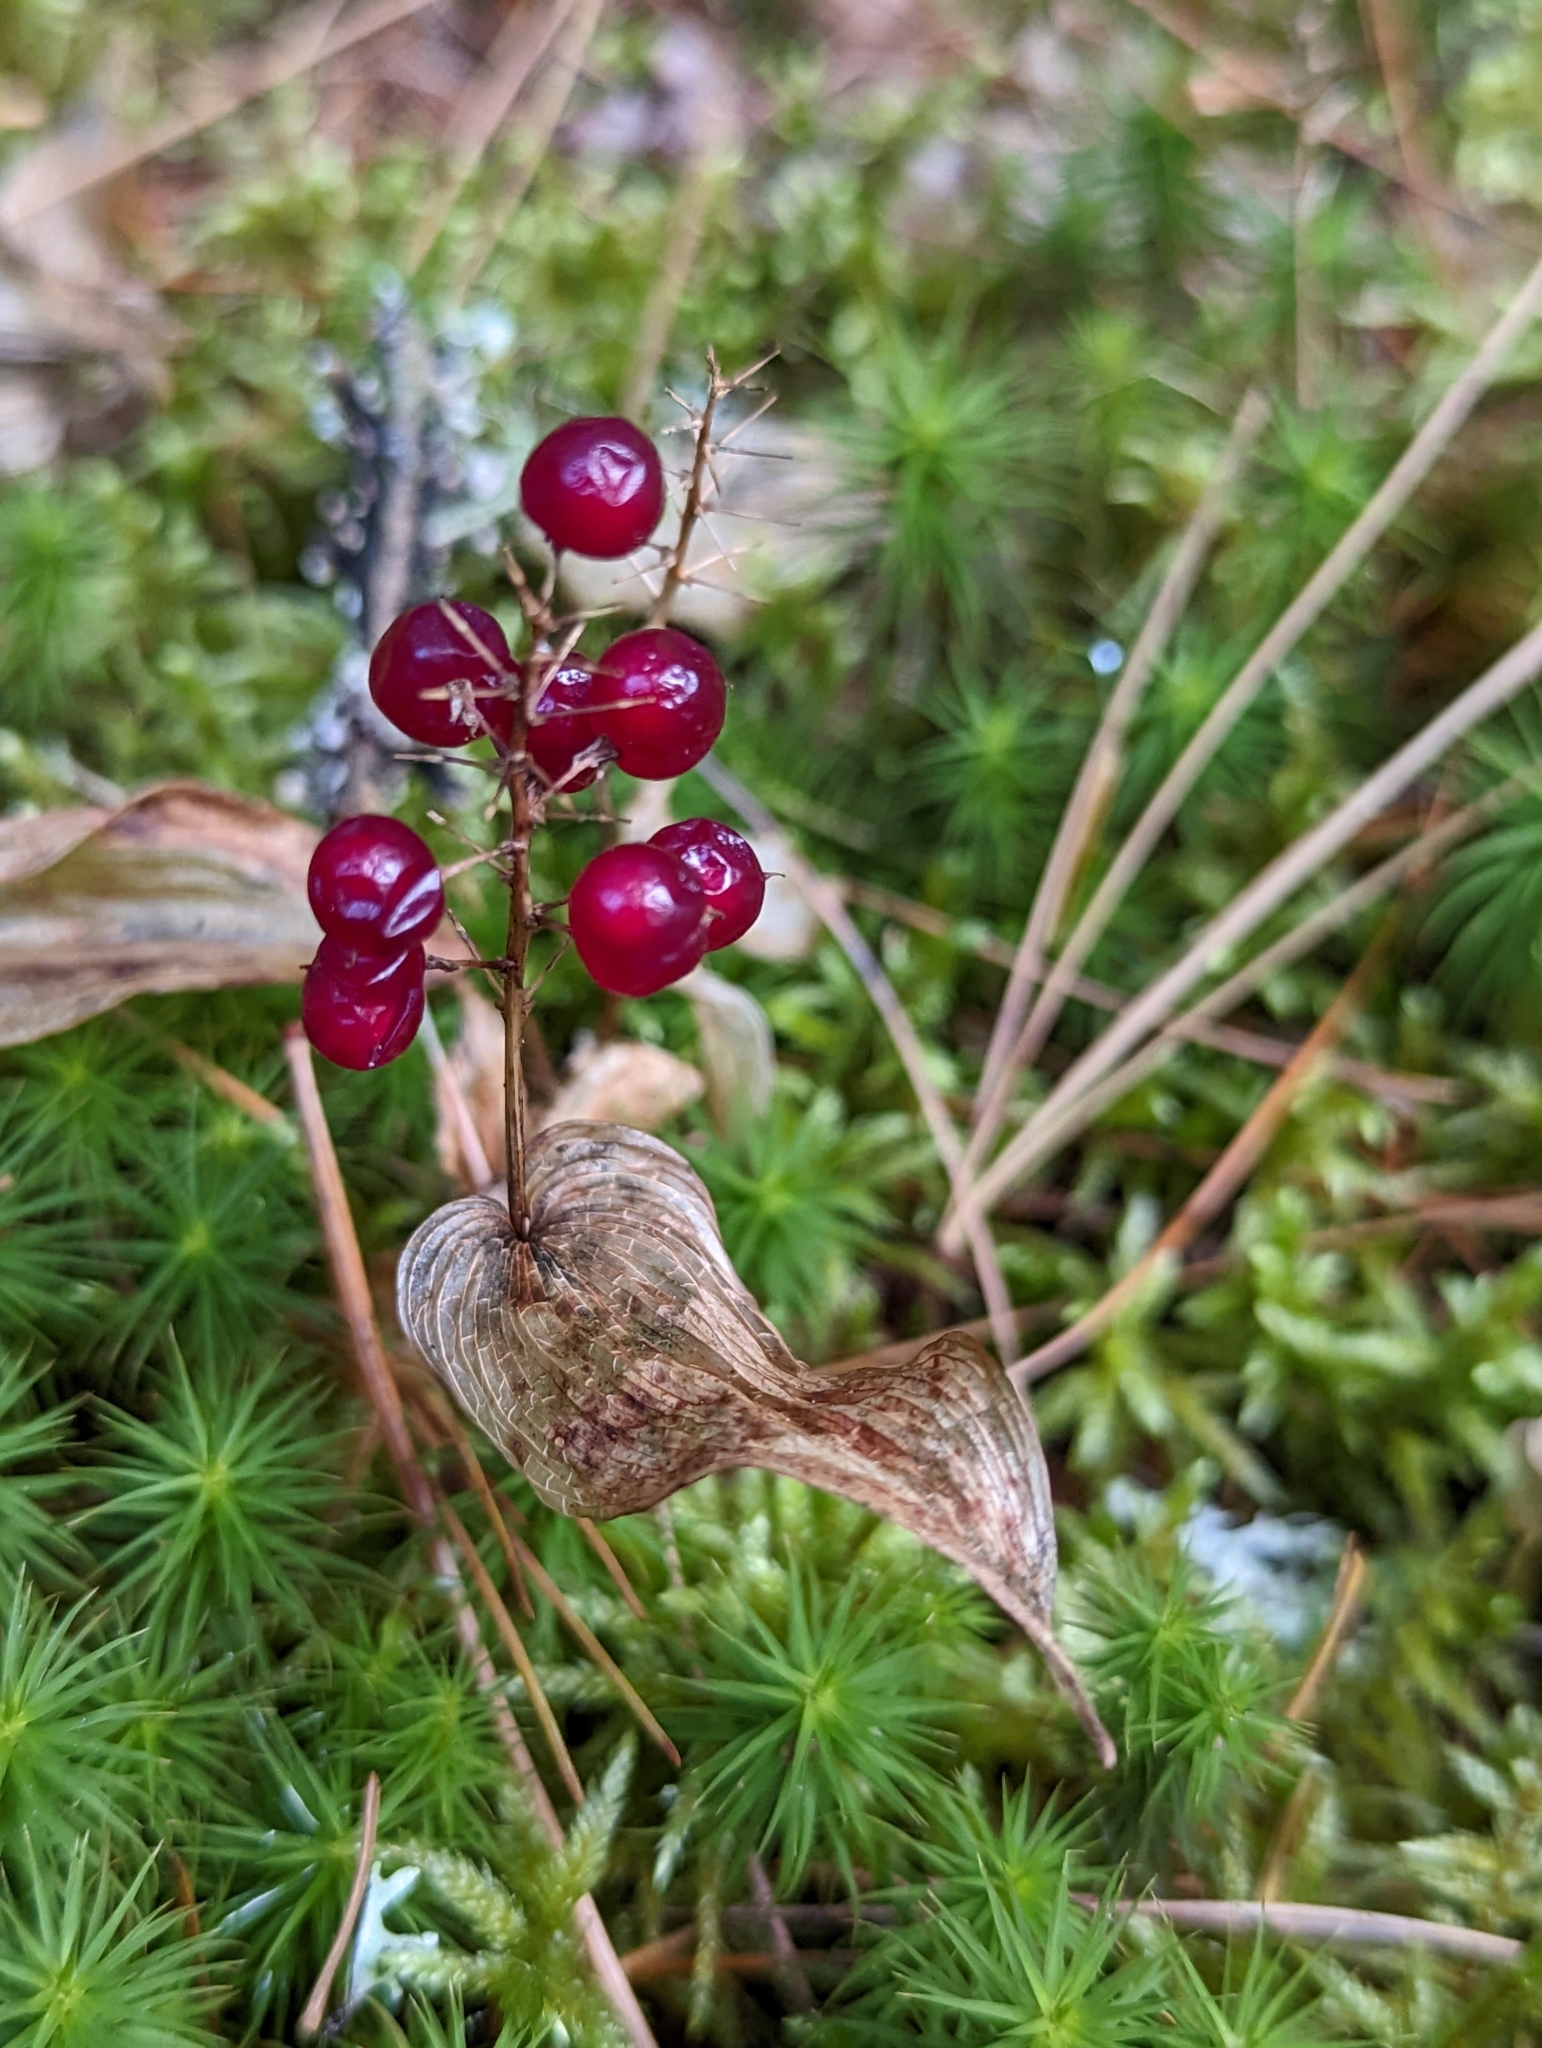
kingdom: Plantae
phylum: Tracheophyta
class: Liliopsida
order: Asparagales
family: Asparagaceae
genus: Maianthemum
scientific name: Maianthemum canadense
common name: False lily-of-the-valley
